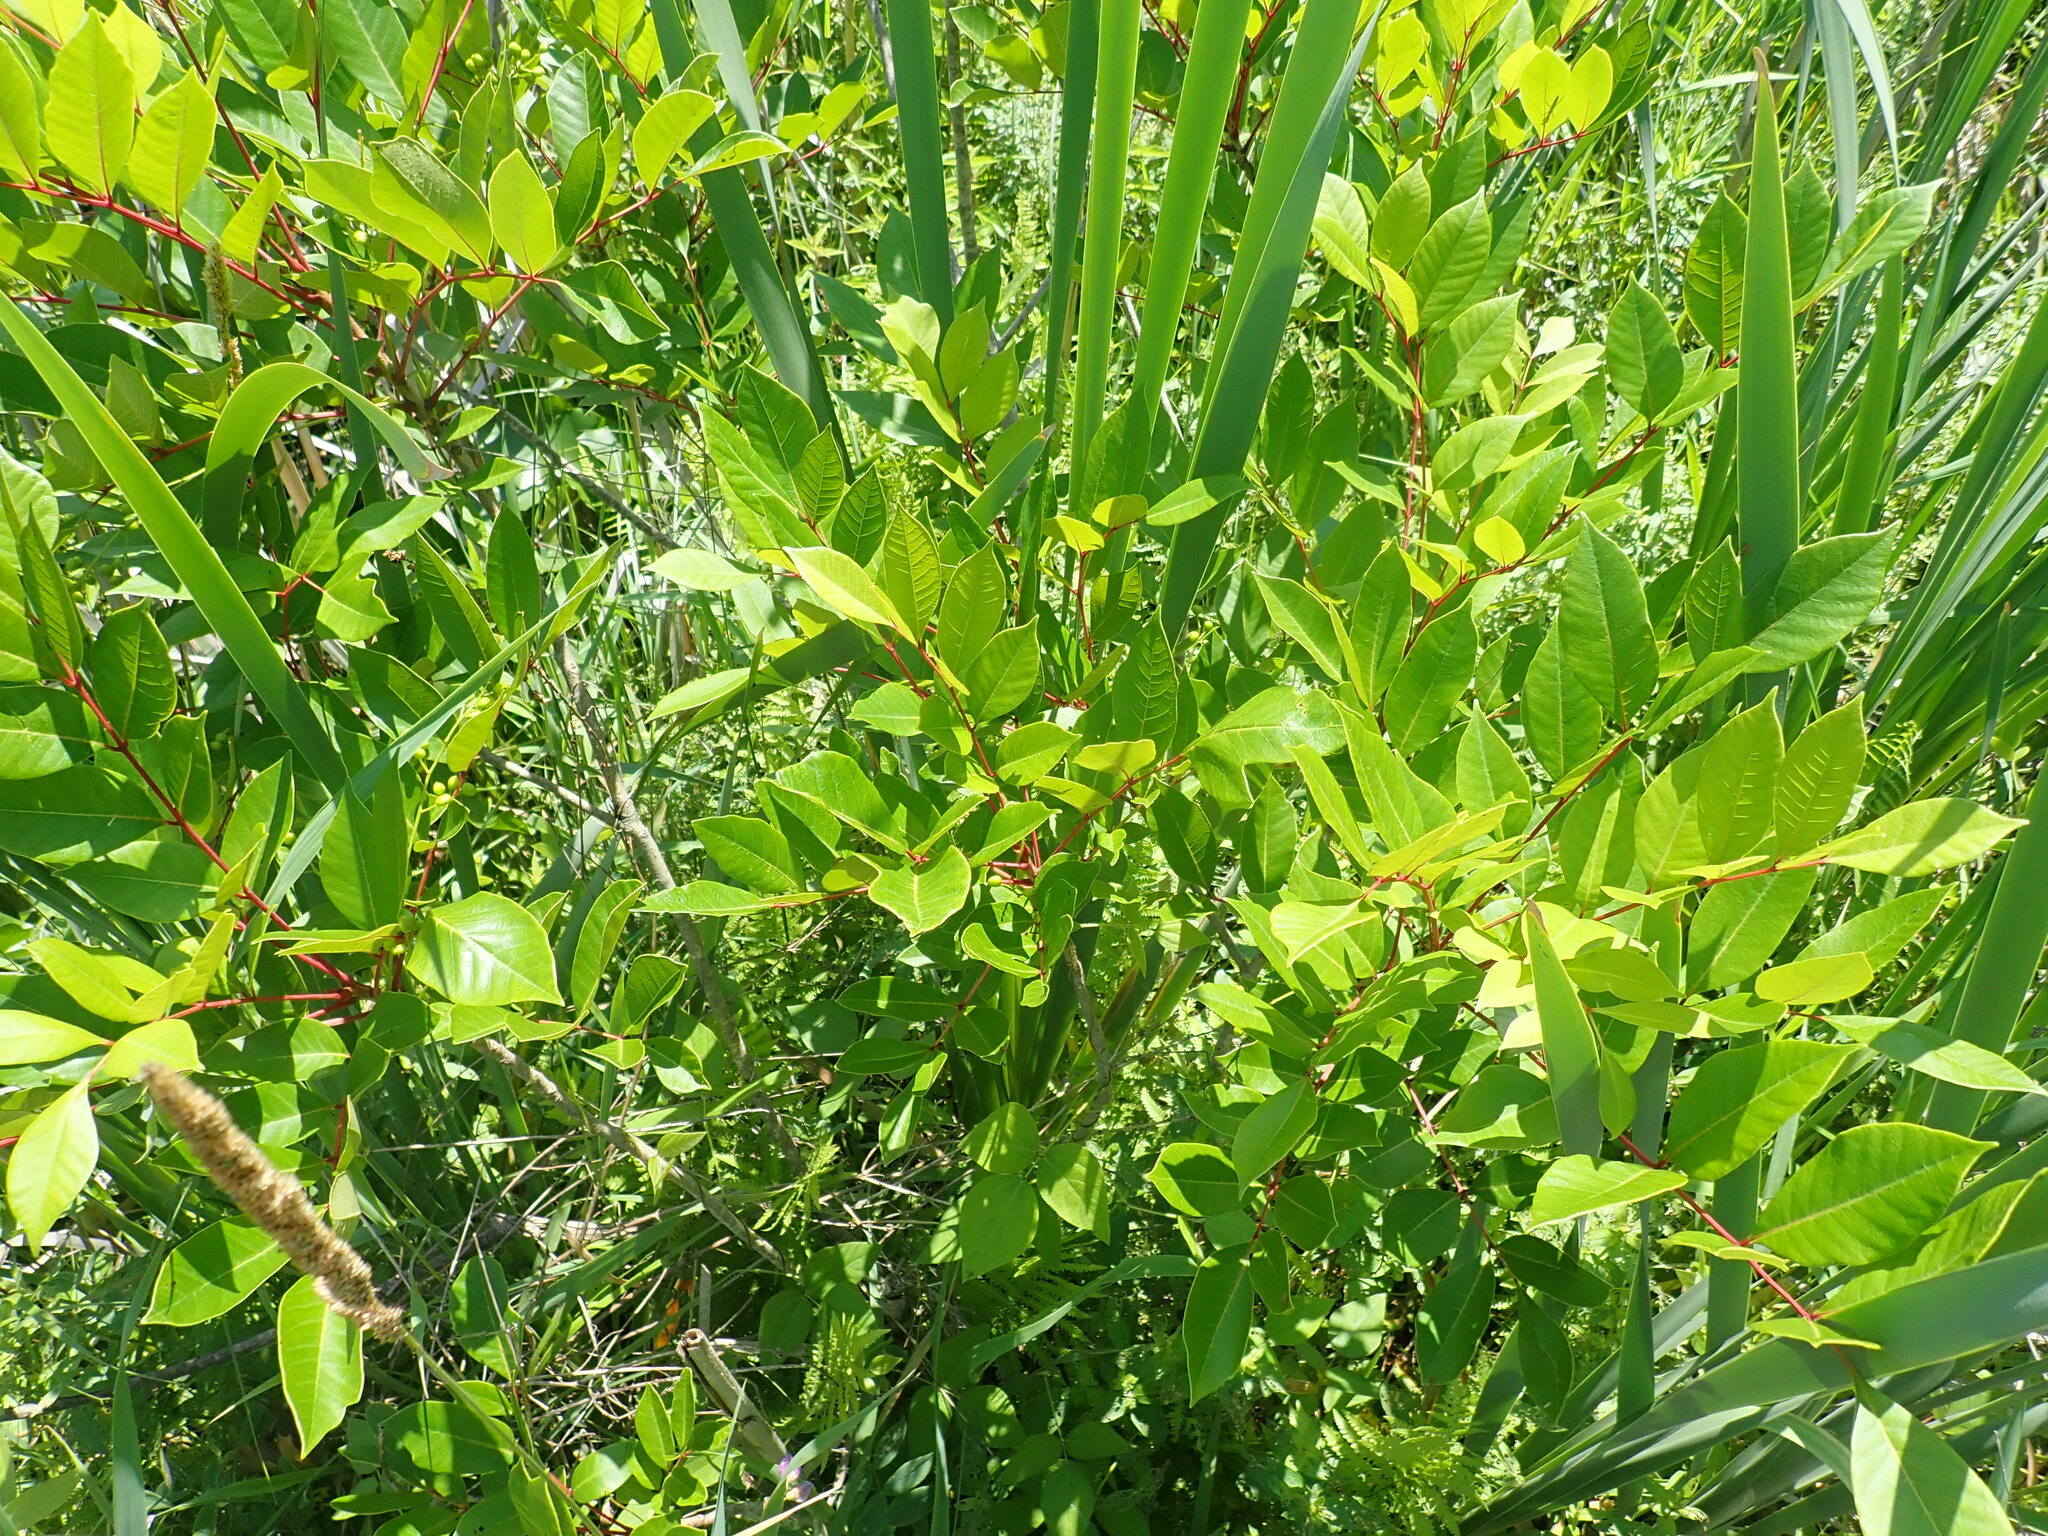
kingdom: Plantae
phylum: Tracheophyta
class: Magnoliopsida
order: Sapindales
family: Anacardiaceae
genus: Toxicodendron
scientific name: Toxicodendron vernix
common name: Poison sumac
